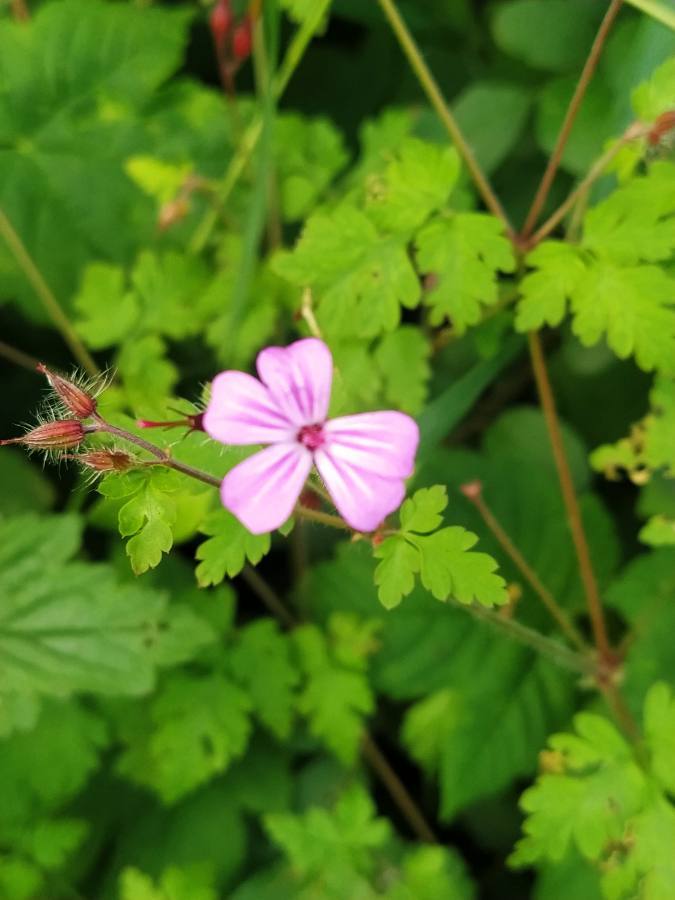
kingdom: Plantae
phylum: Tracheophyta
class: Magnoliopsida
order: Geraniales
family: Geraniaceae
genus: Geranium
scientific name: Geranium robertianum
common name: Herb-robert
